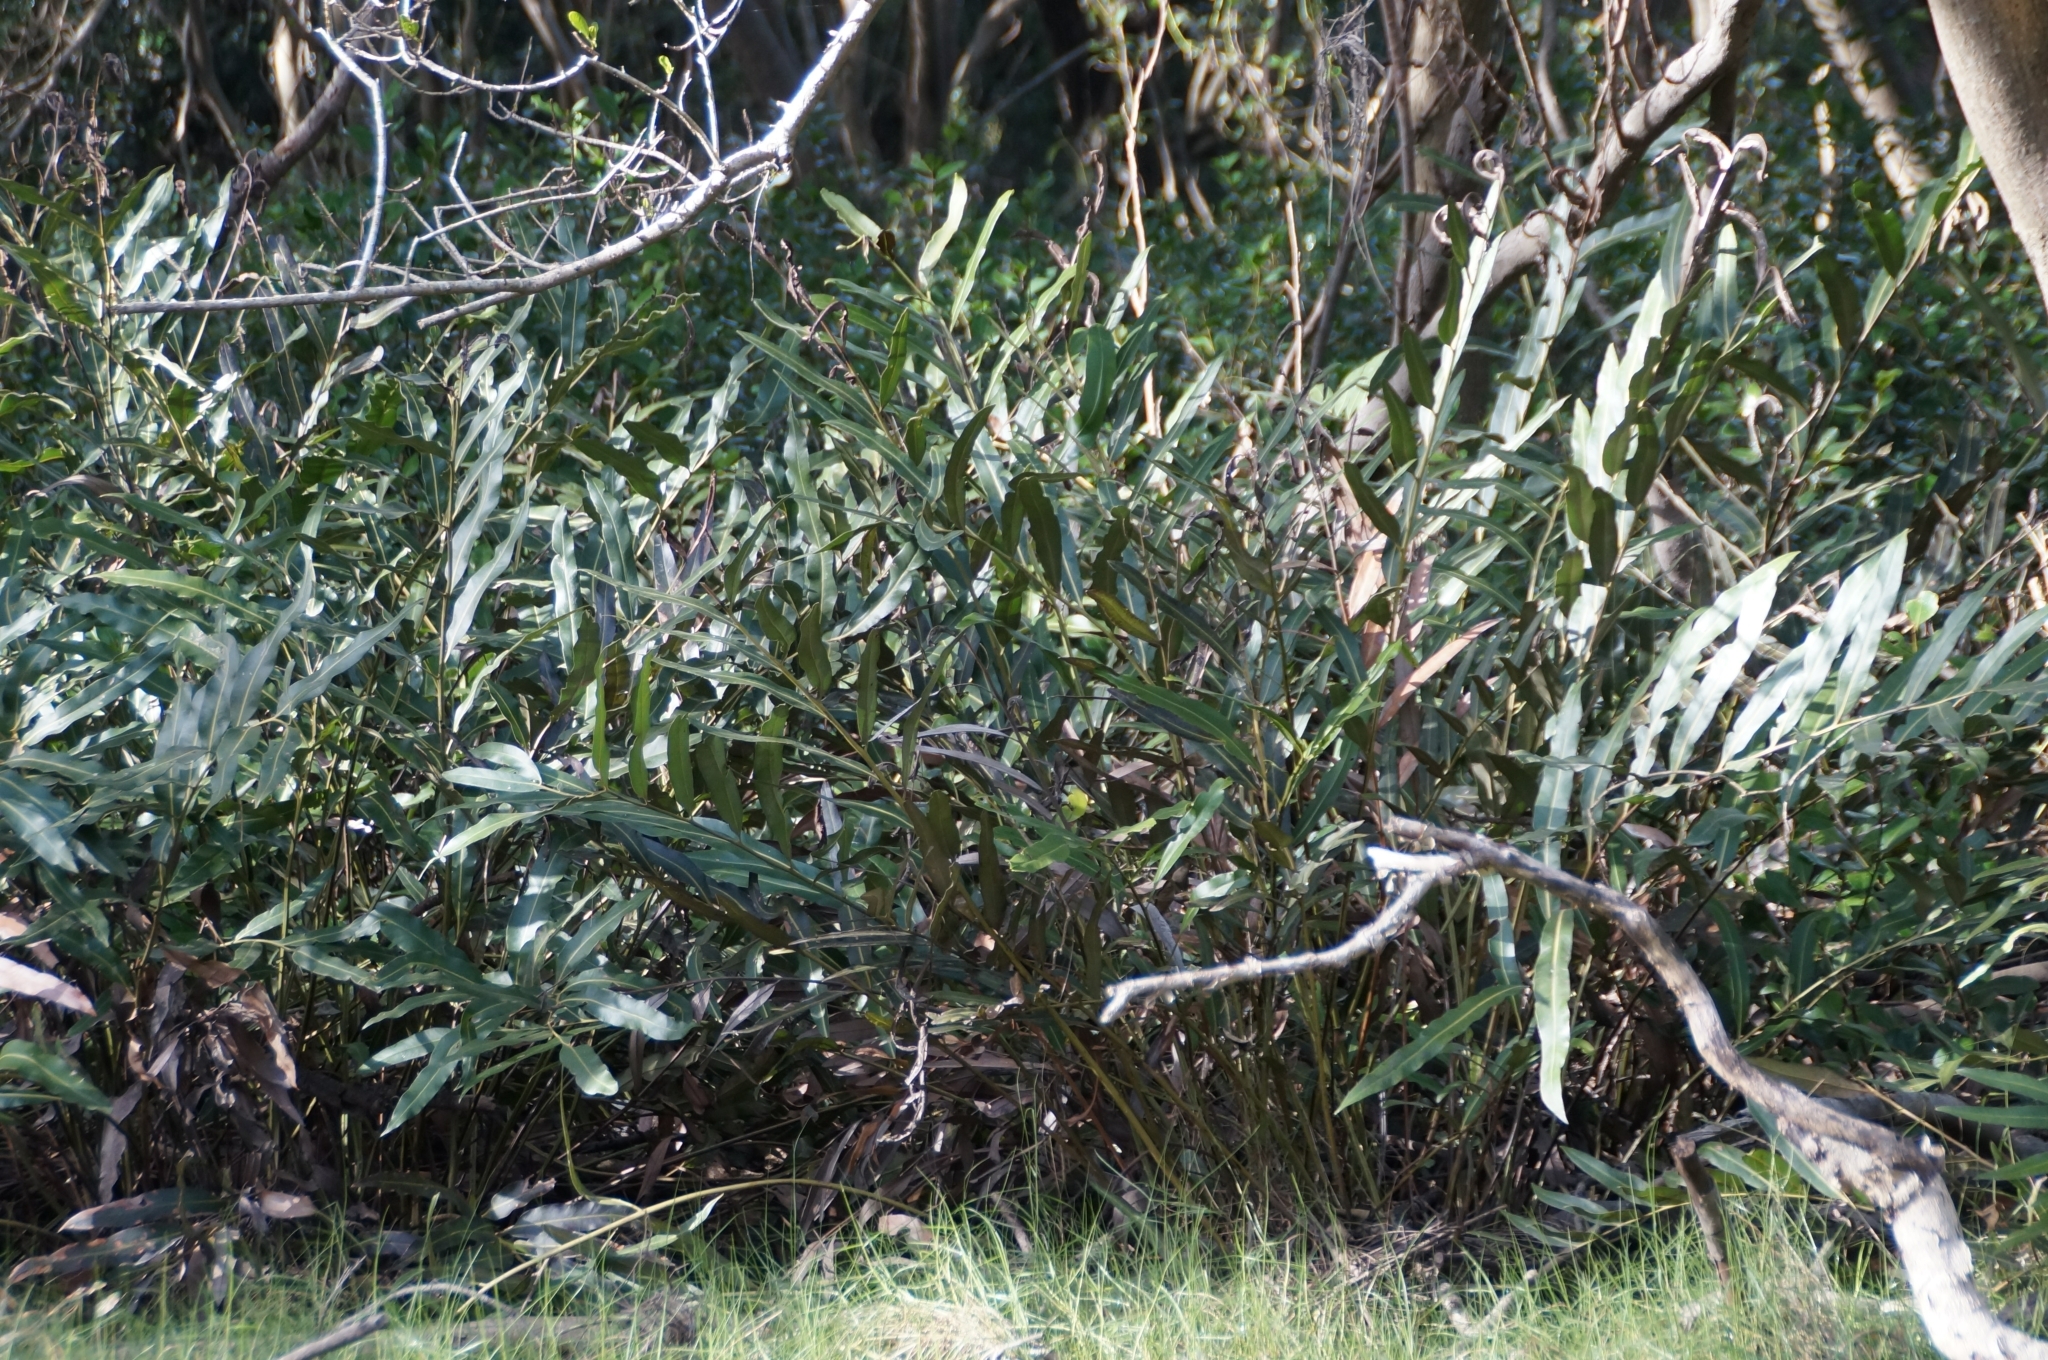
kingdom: Plantae
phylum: Tracheophyta
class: Polypodiopsida
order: Polypodiales
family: Pteridaceae
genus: Acrostichum
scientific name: Acrostichum speciosum
